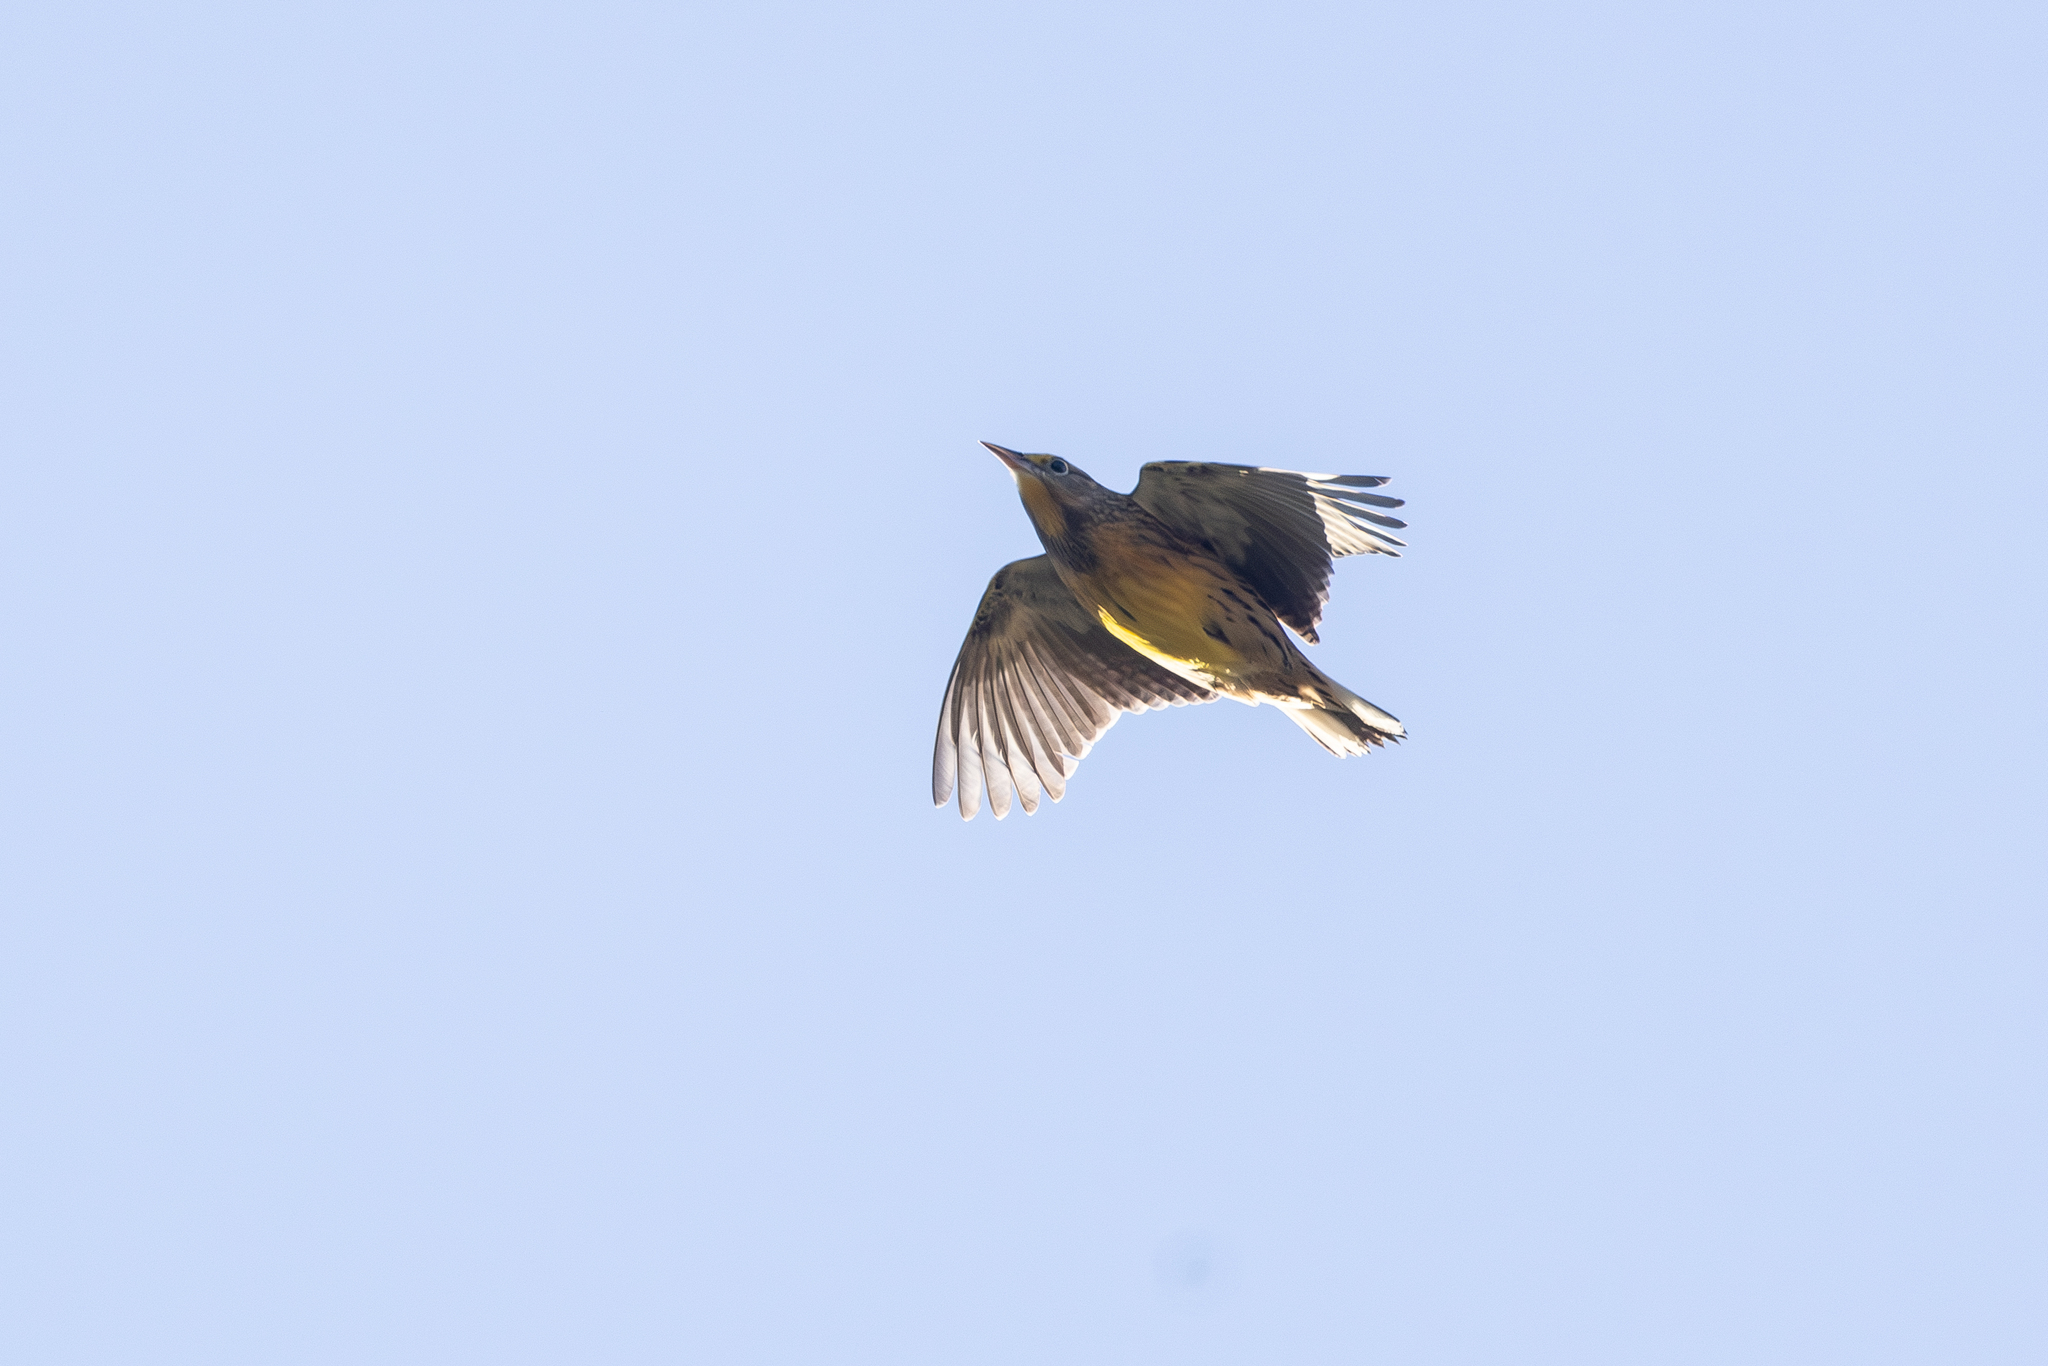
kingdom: Animalia
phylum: Chordata
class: Aves
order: Passeriformes
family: Icteridae
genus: Sturnella
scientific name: Sturnella magna
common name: Eastern meadowlark
